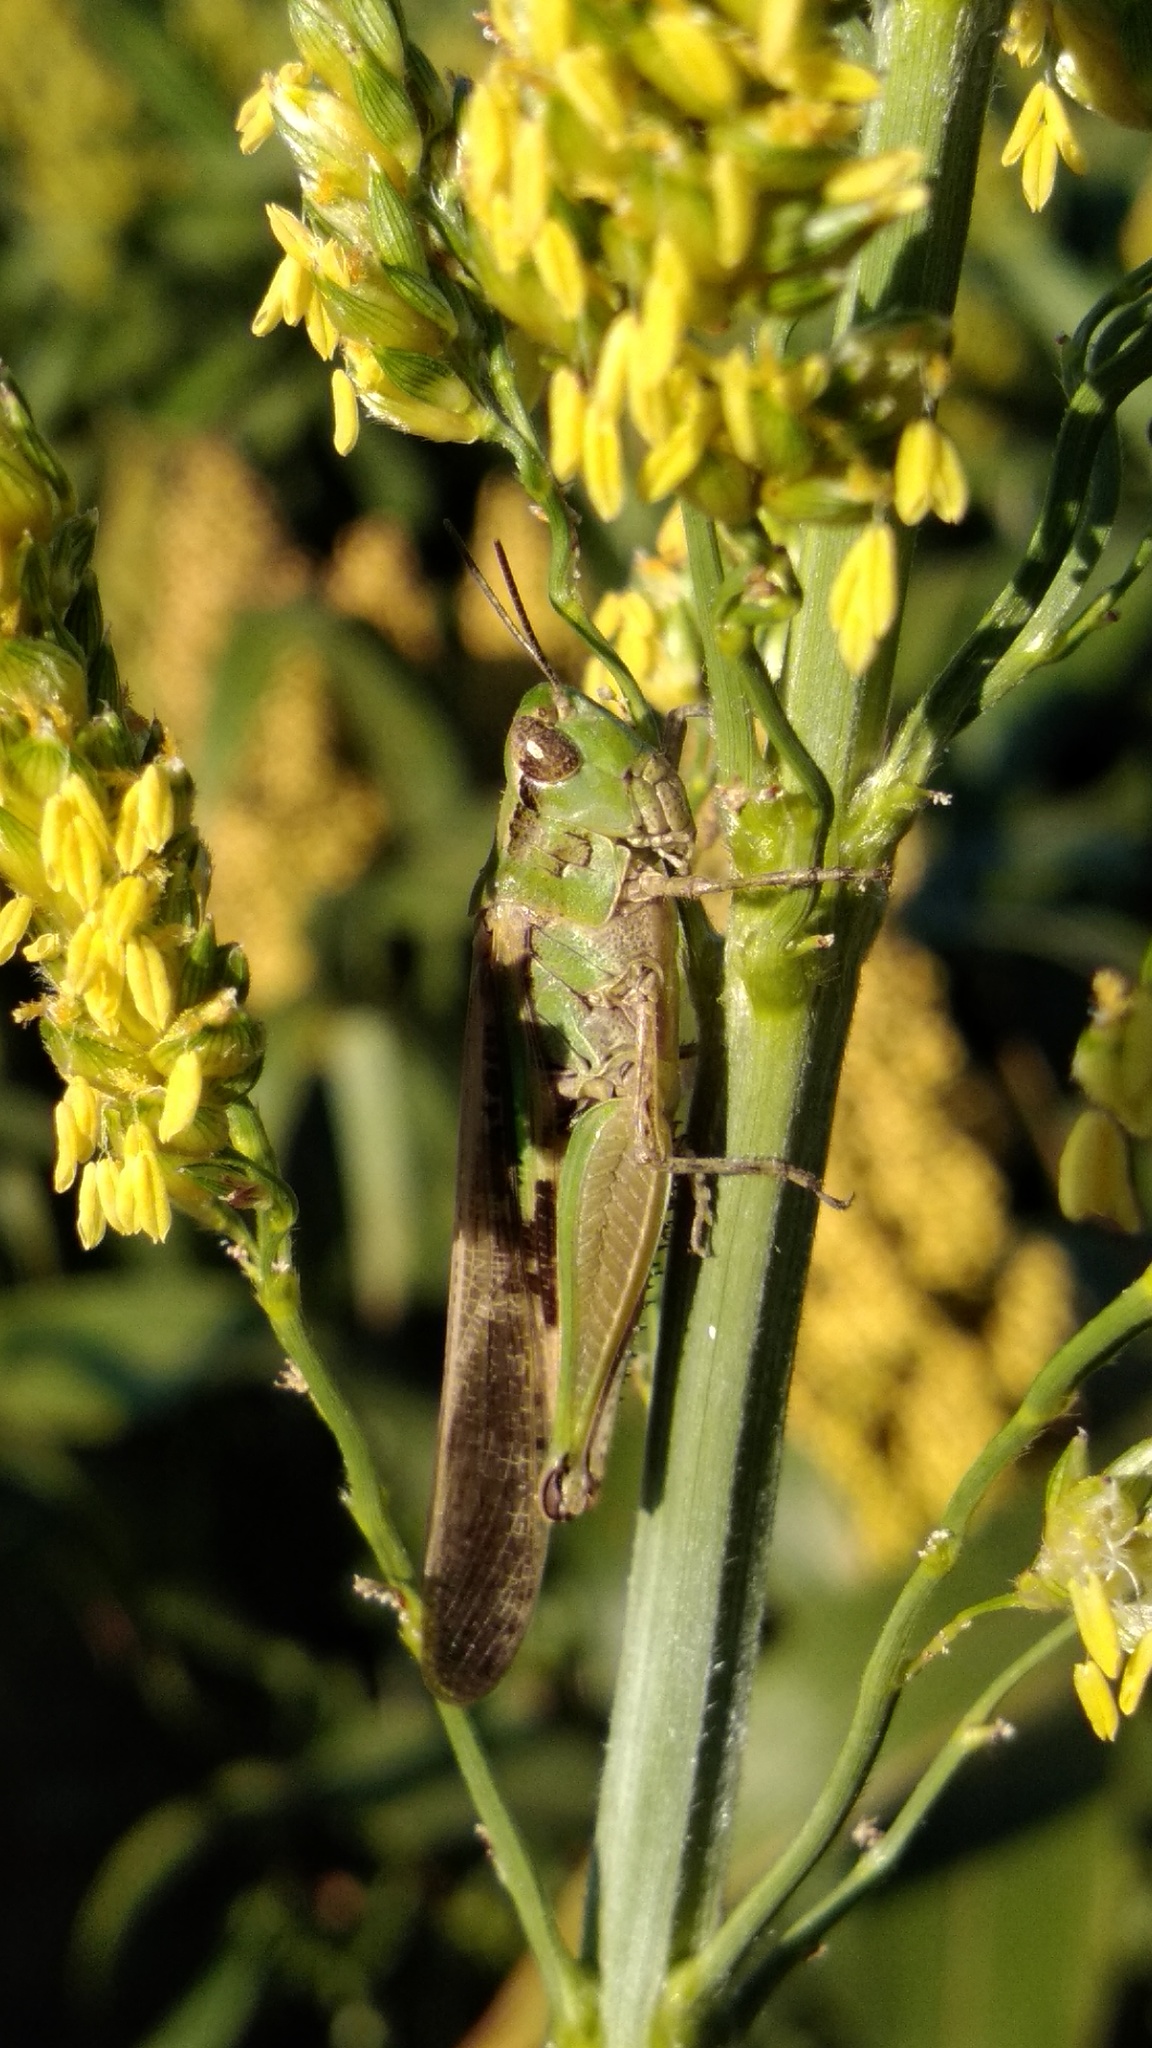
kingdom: Animalia
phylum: Arthropoda
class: Insecta
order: Orthoptera
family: Acrididae
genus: Aiolopus
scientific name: Aiolopus puissanti
